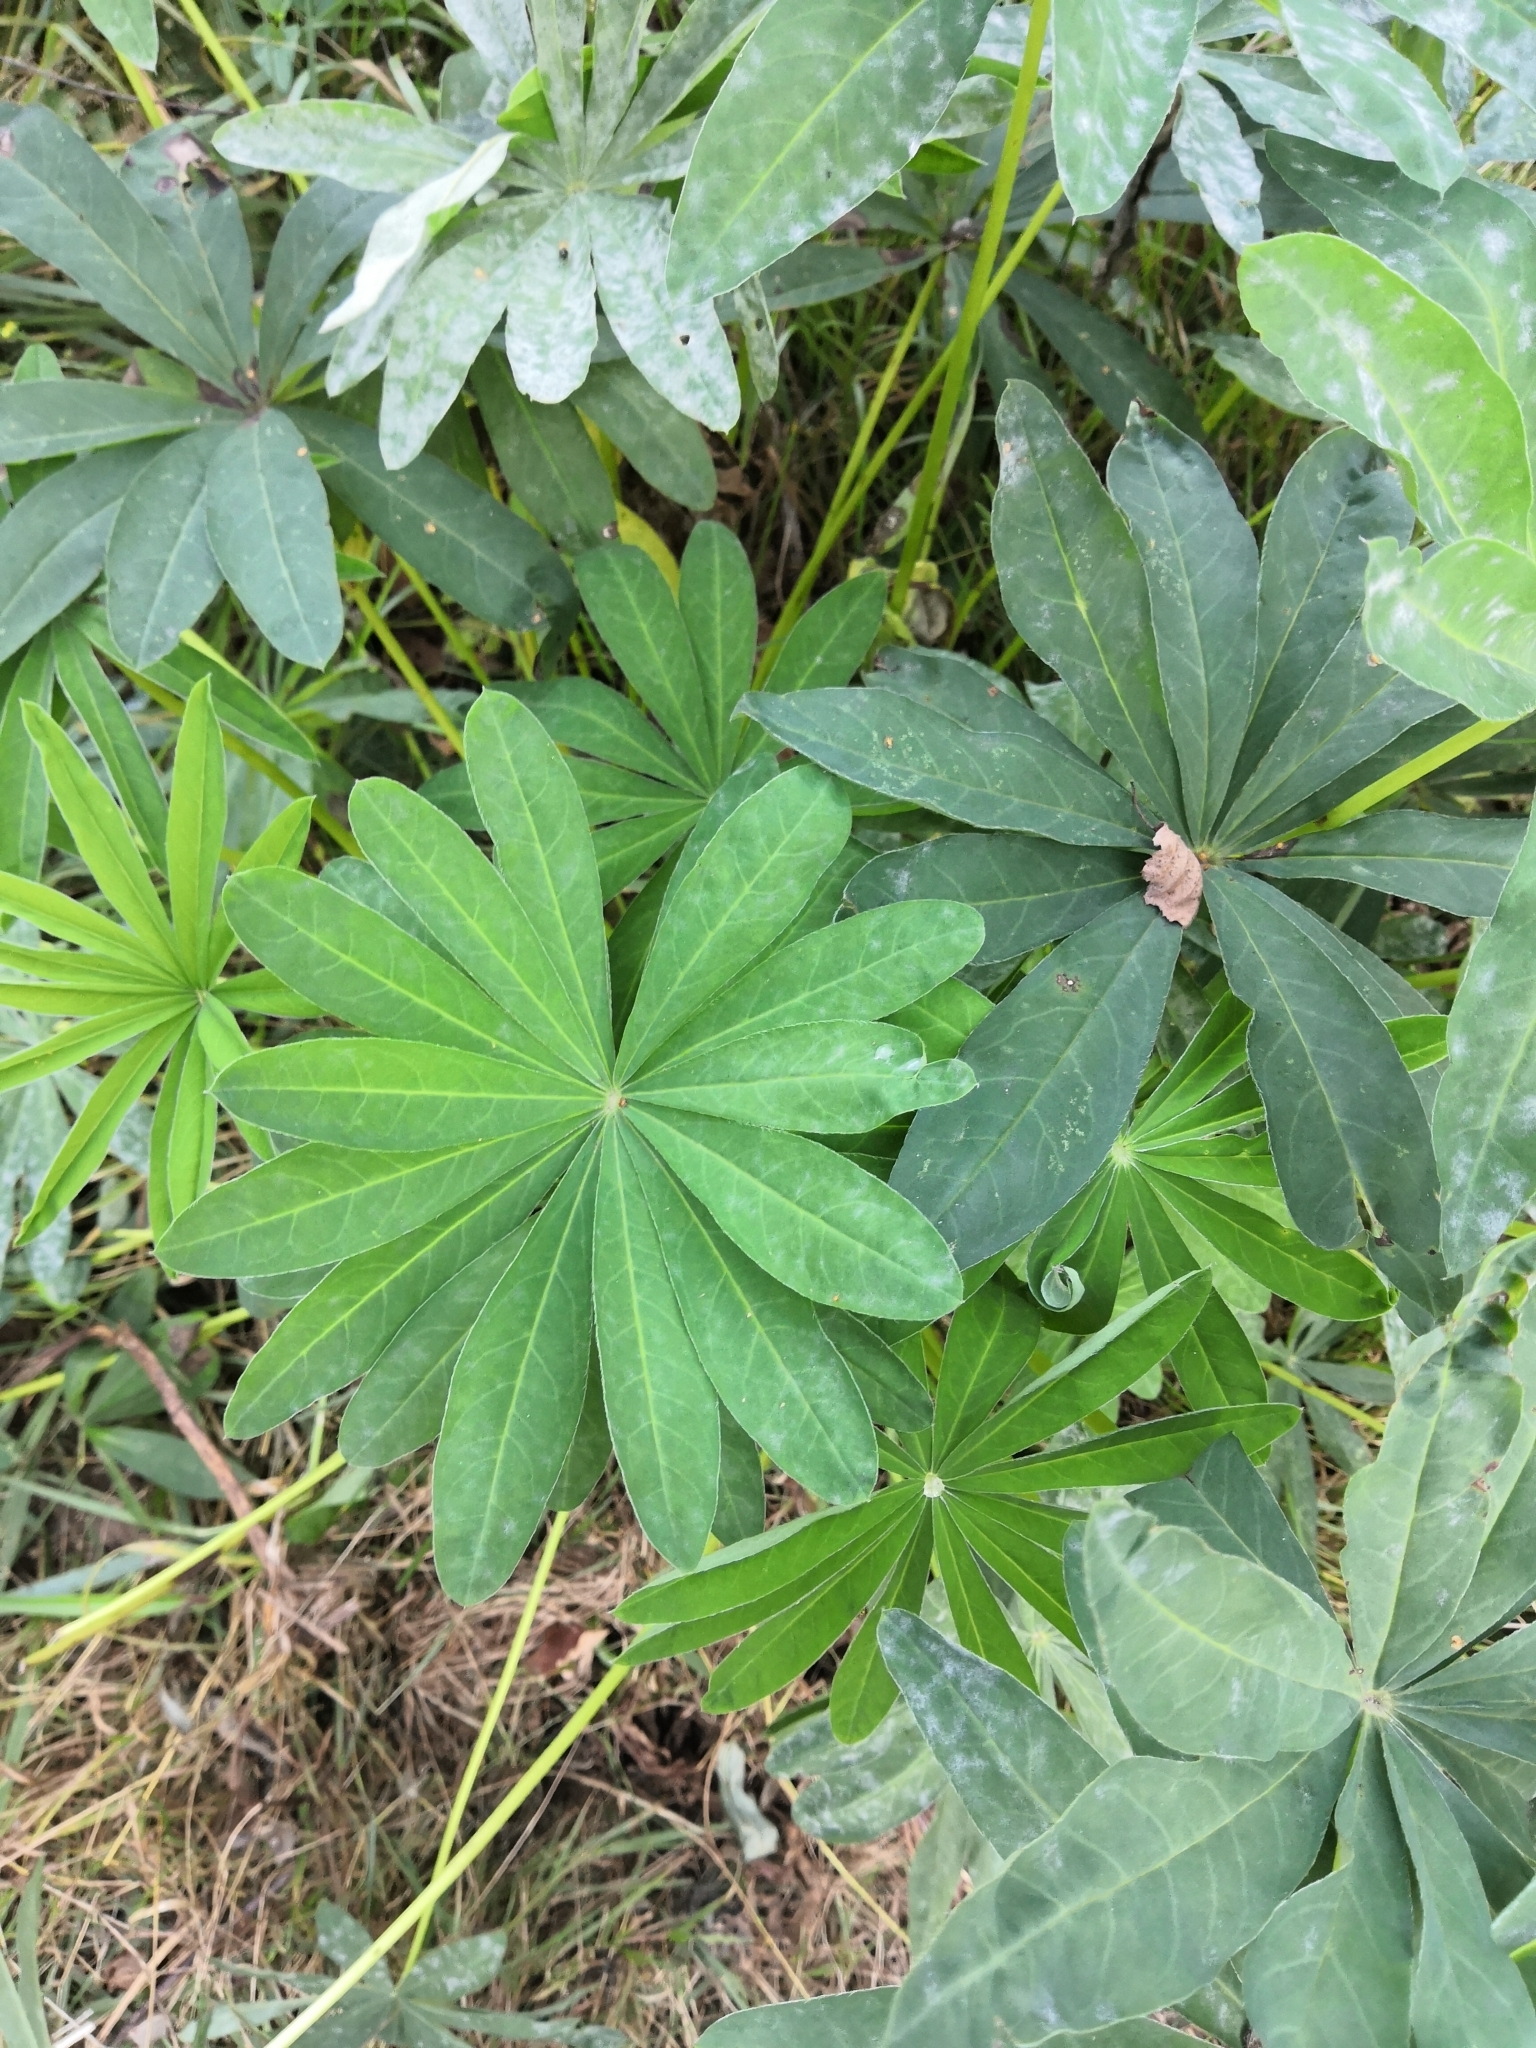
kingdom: Plantae
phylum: Tracheophyta
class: Magnoliopsida
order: Fabales
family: Fabaceae
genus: Lupinus
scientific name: Lupinus polyphyllus
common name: Garden lupin
